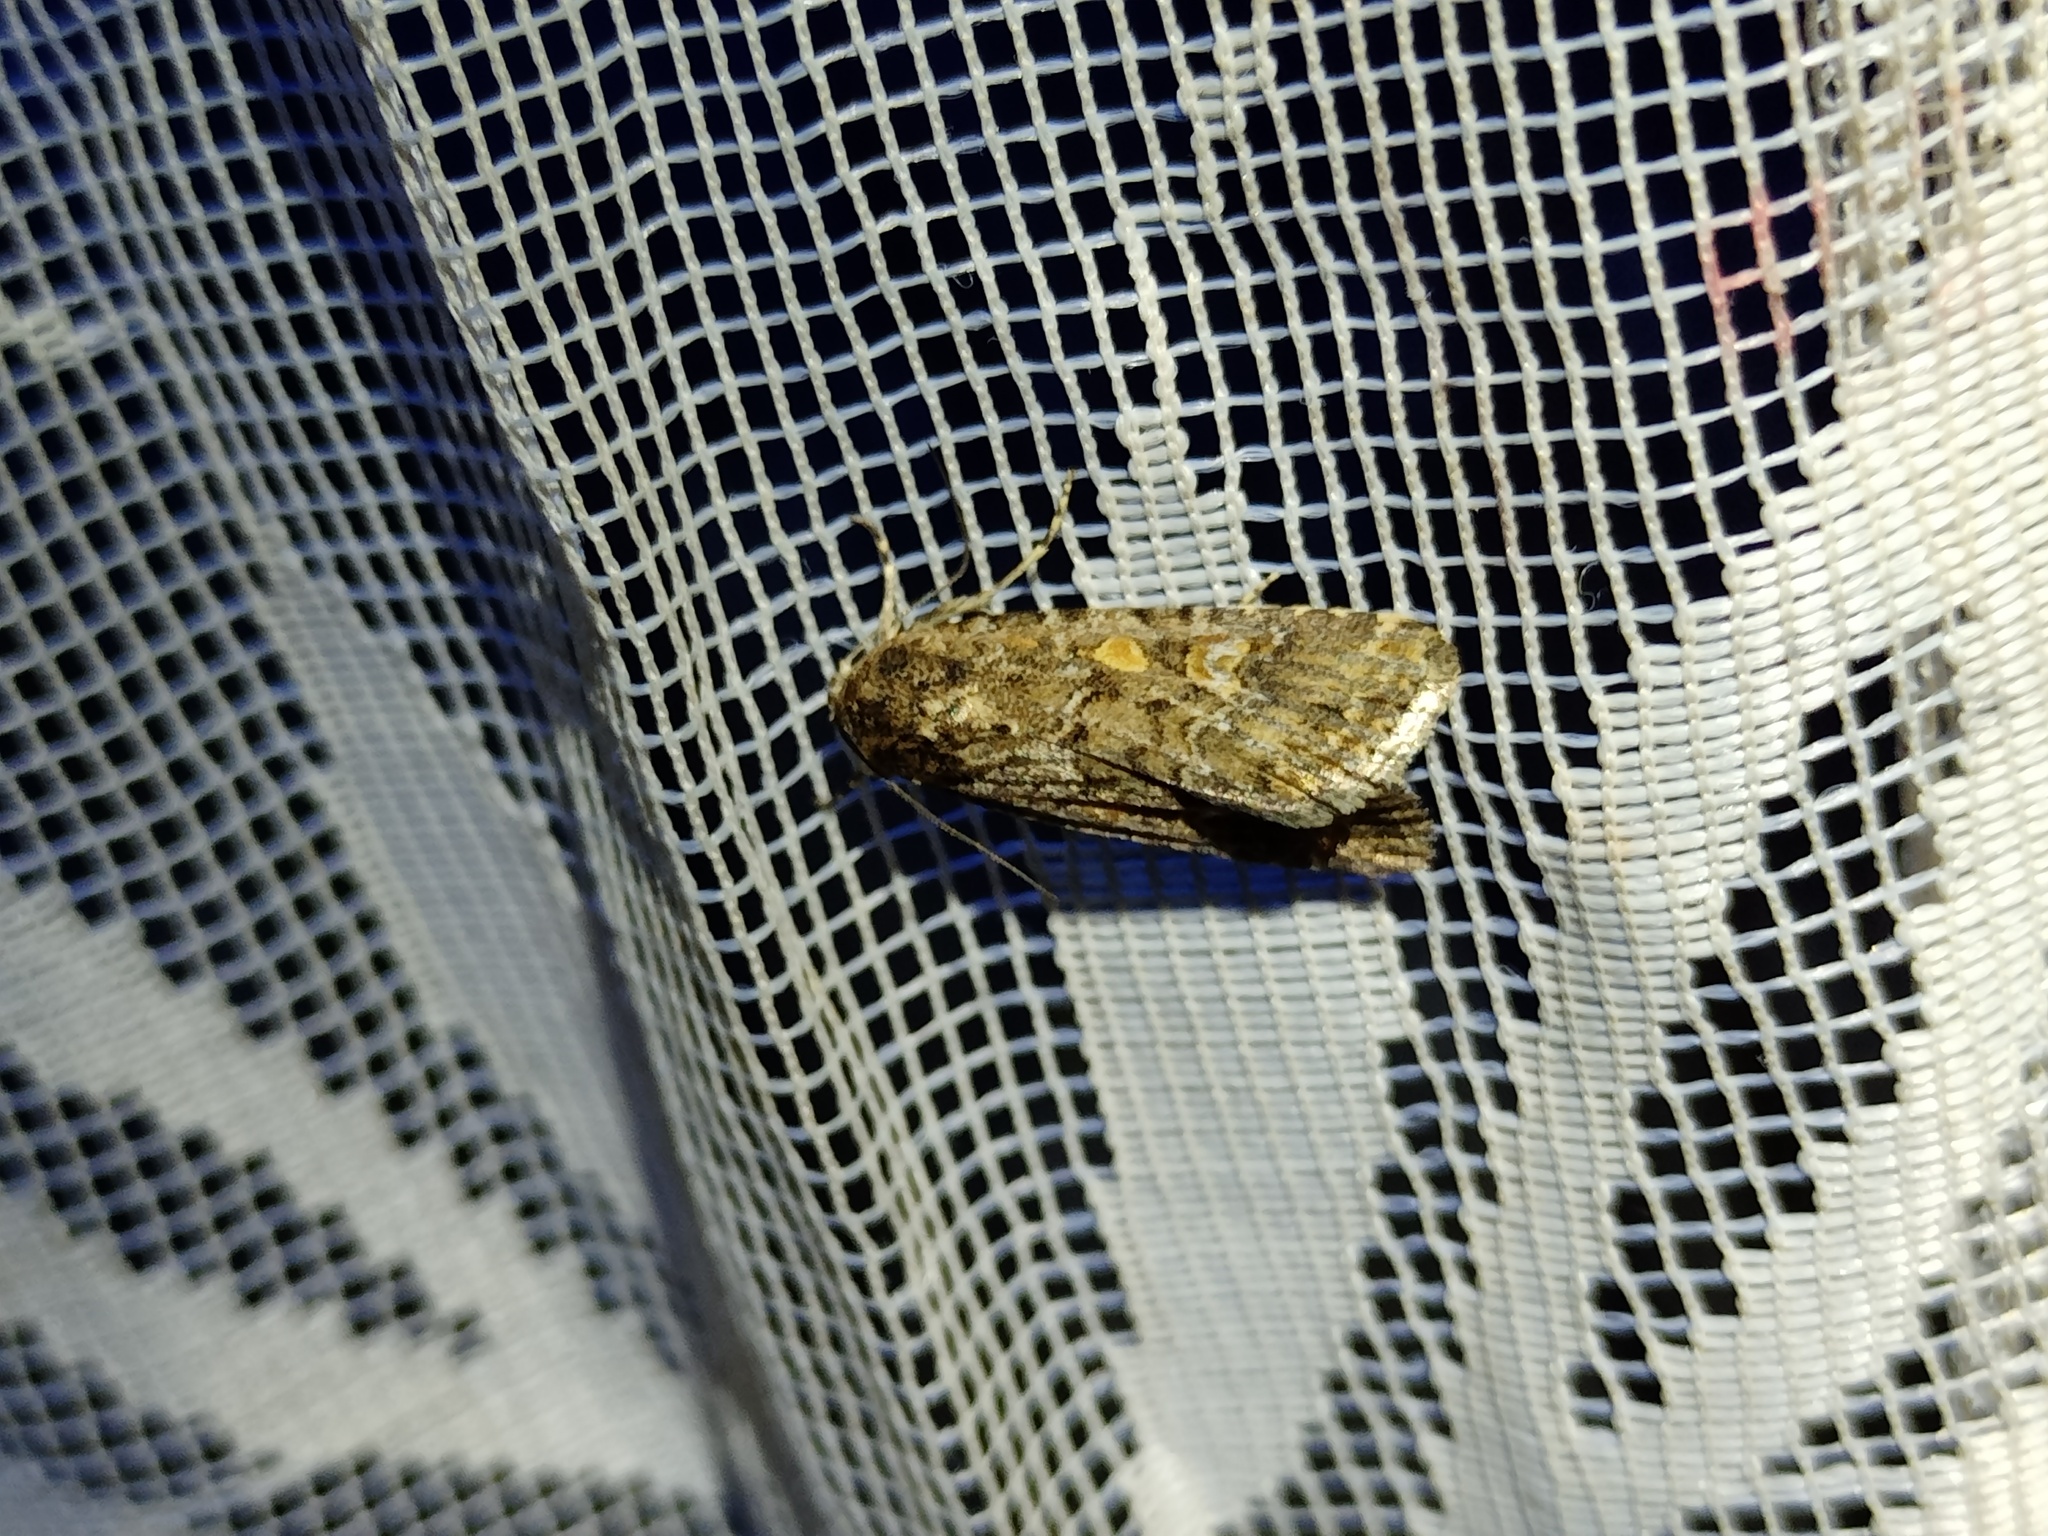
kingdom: Animalia
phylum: Arthropoda
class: Insecta
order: Lepidoptera
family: Noctuidae
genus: Spodoptera
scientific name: Spodoptera exigua
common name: Beet armyworm
